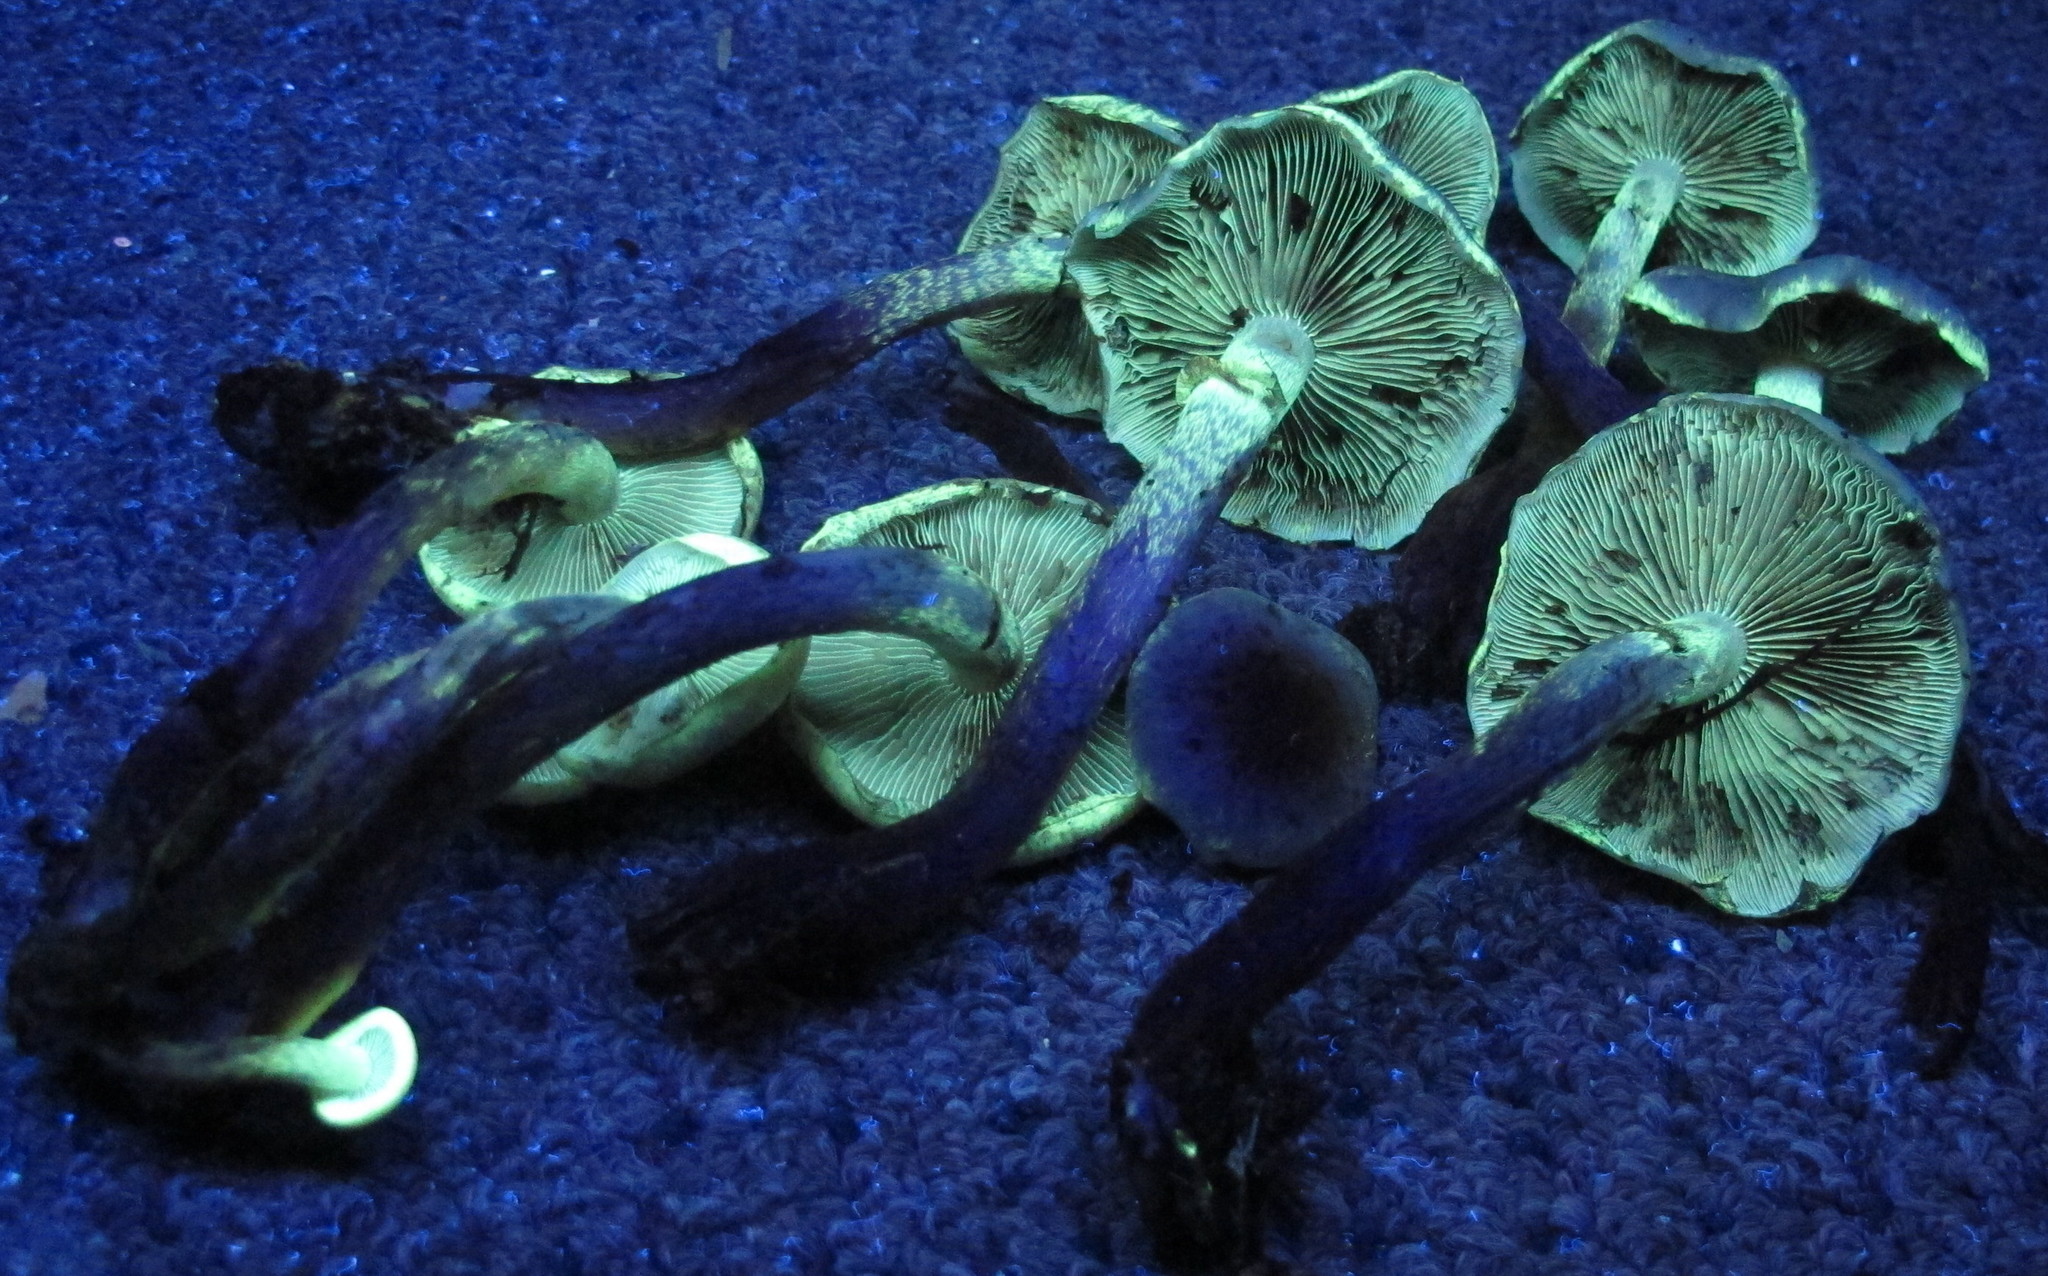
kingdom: Fungi
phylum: Basidiomycota
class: Agaricomycetes
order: Agaricales
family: Strophariaceae
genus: Hypholoma
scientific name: Hypholoma lateritium
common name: Brick caps
